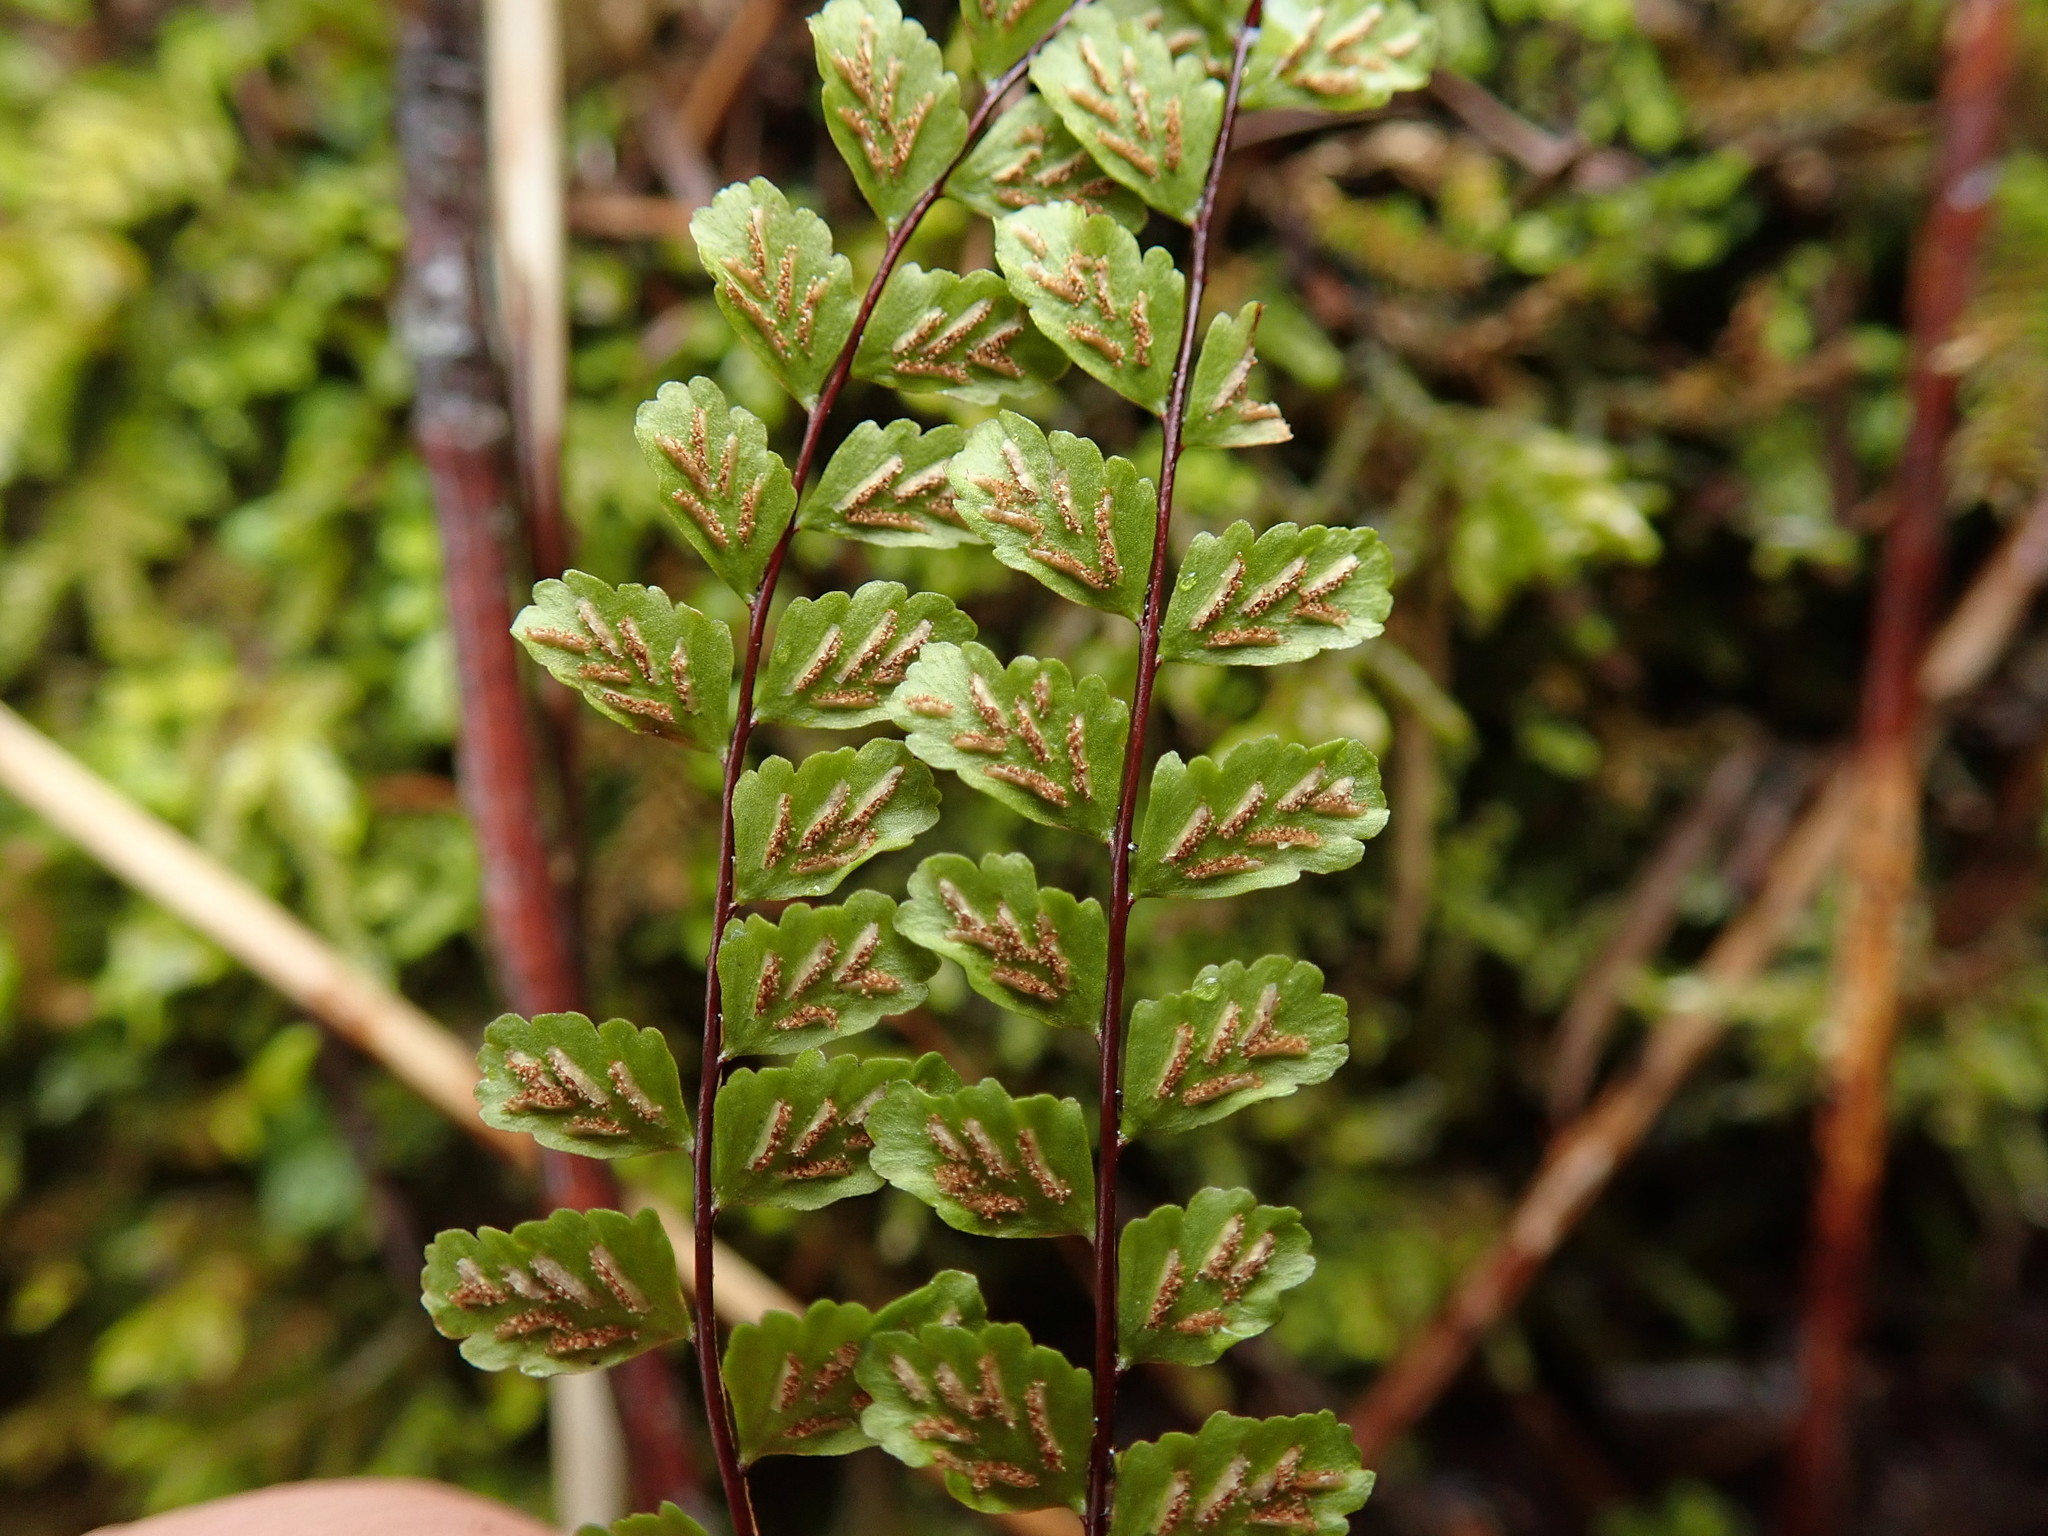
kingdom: Plantae
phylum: Tracheophyta
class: Polypodiopsida
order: Polypodiales
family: Aspleniaceae
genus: Asplenium
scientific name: Asplenium trichomanes
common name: Maidenhair spleenwort
